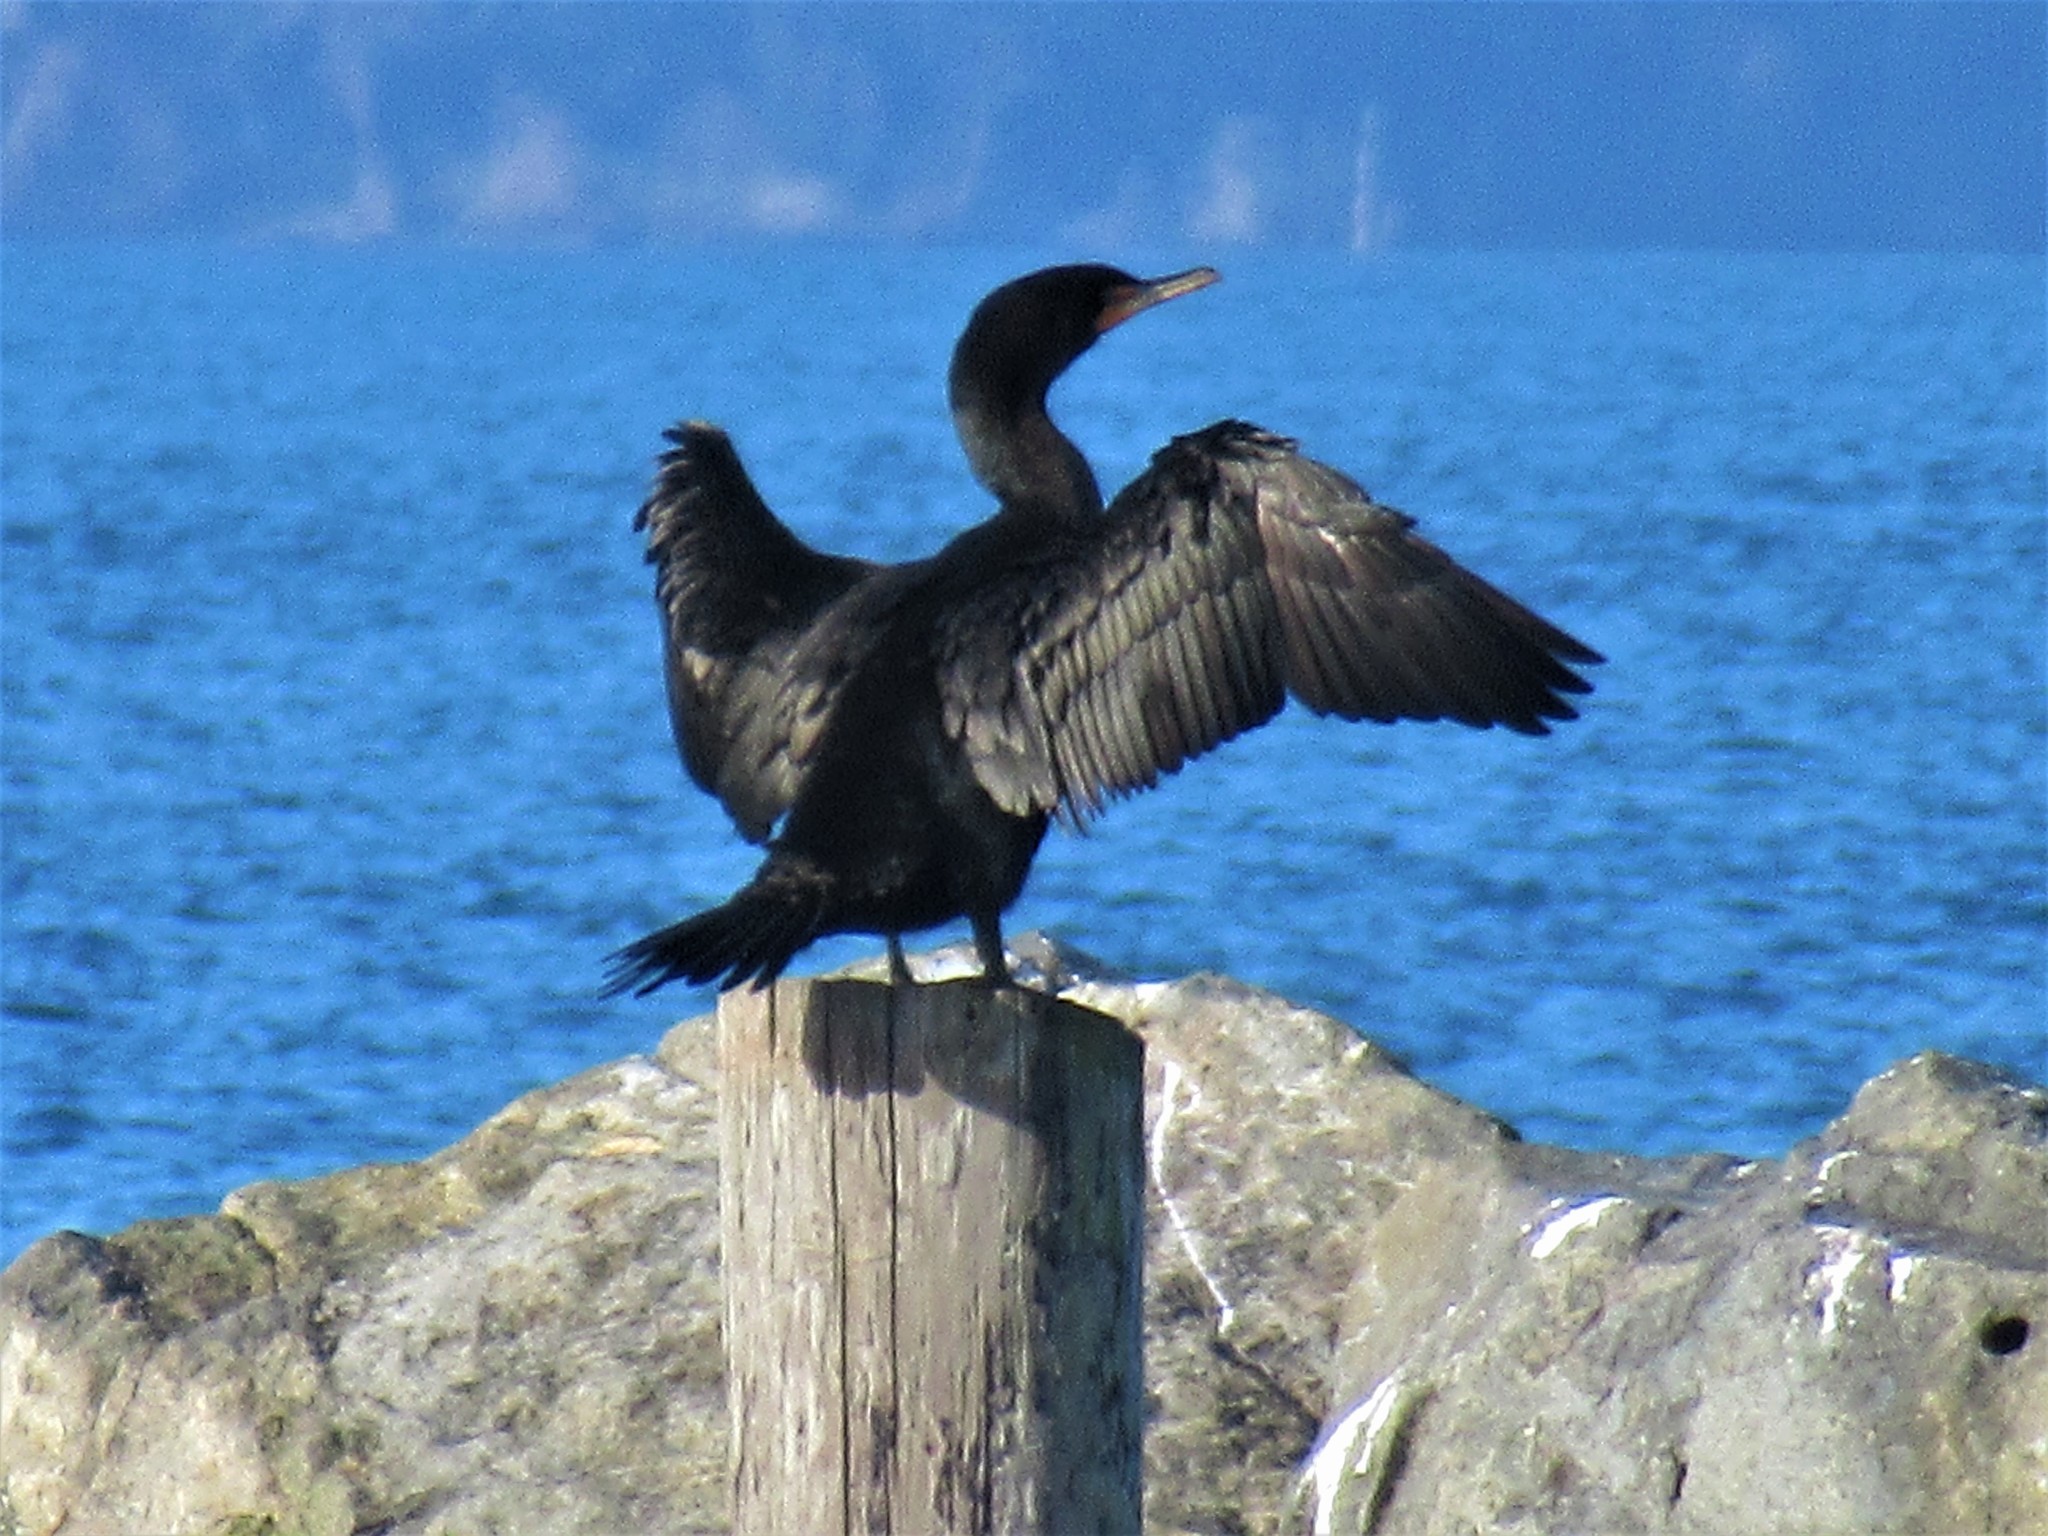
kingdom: Animalia
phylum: Chordata
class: Aves
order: Suliformes
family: Phalacrocoracidae
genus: Phalacrocorax
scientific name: Phalacrocorax auritus
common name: Double-crested cormorant
